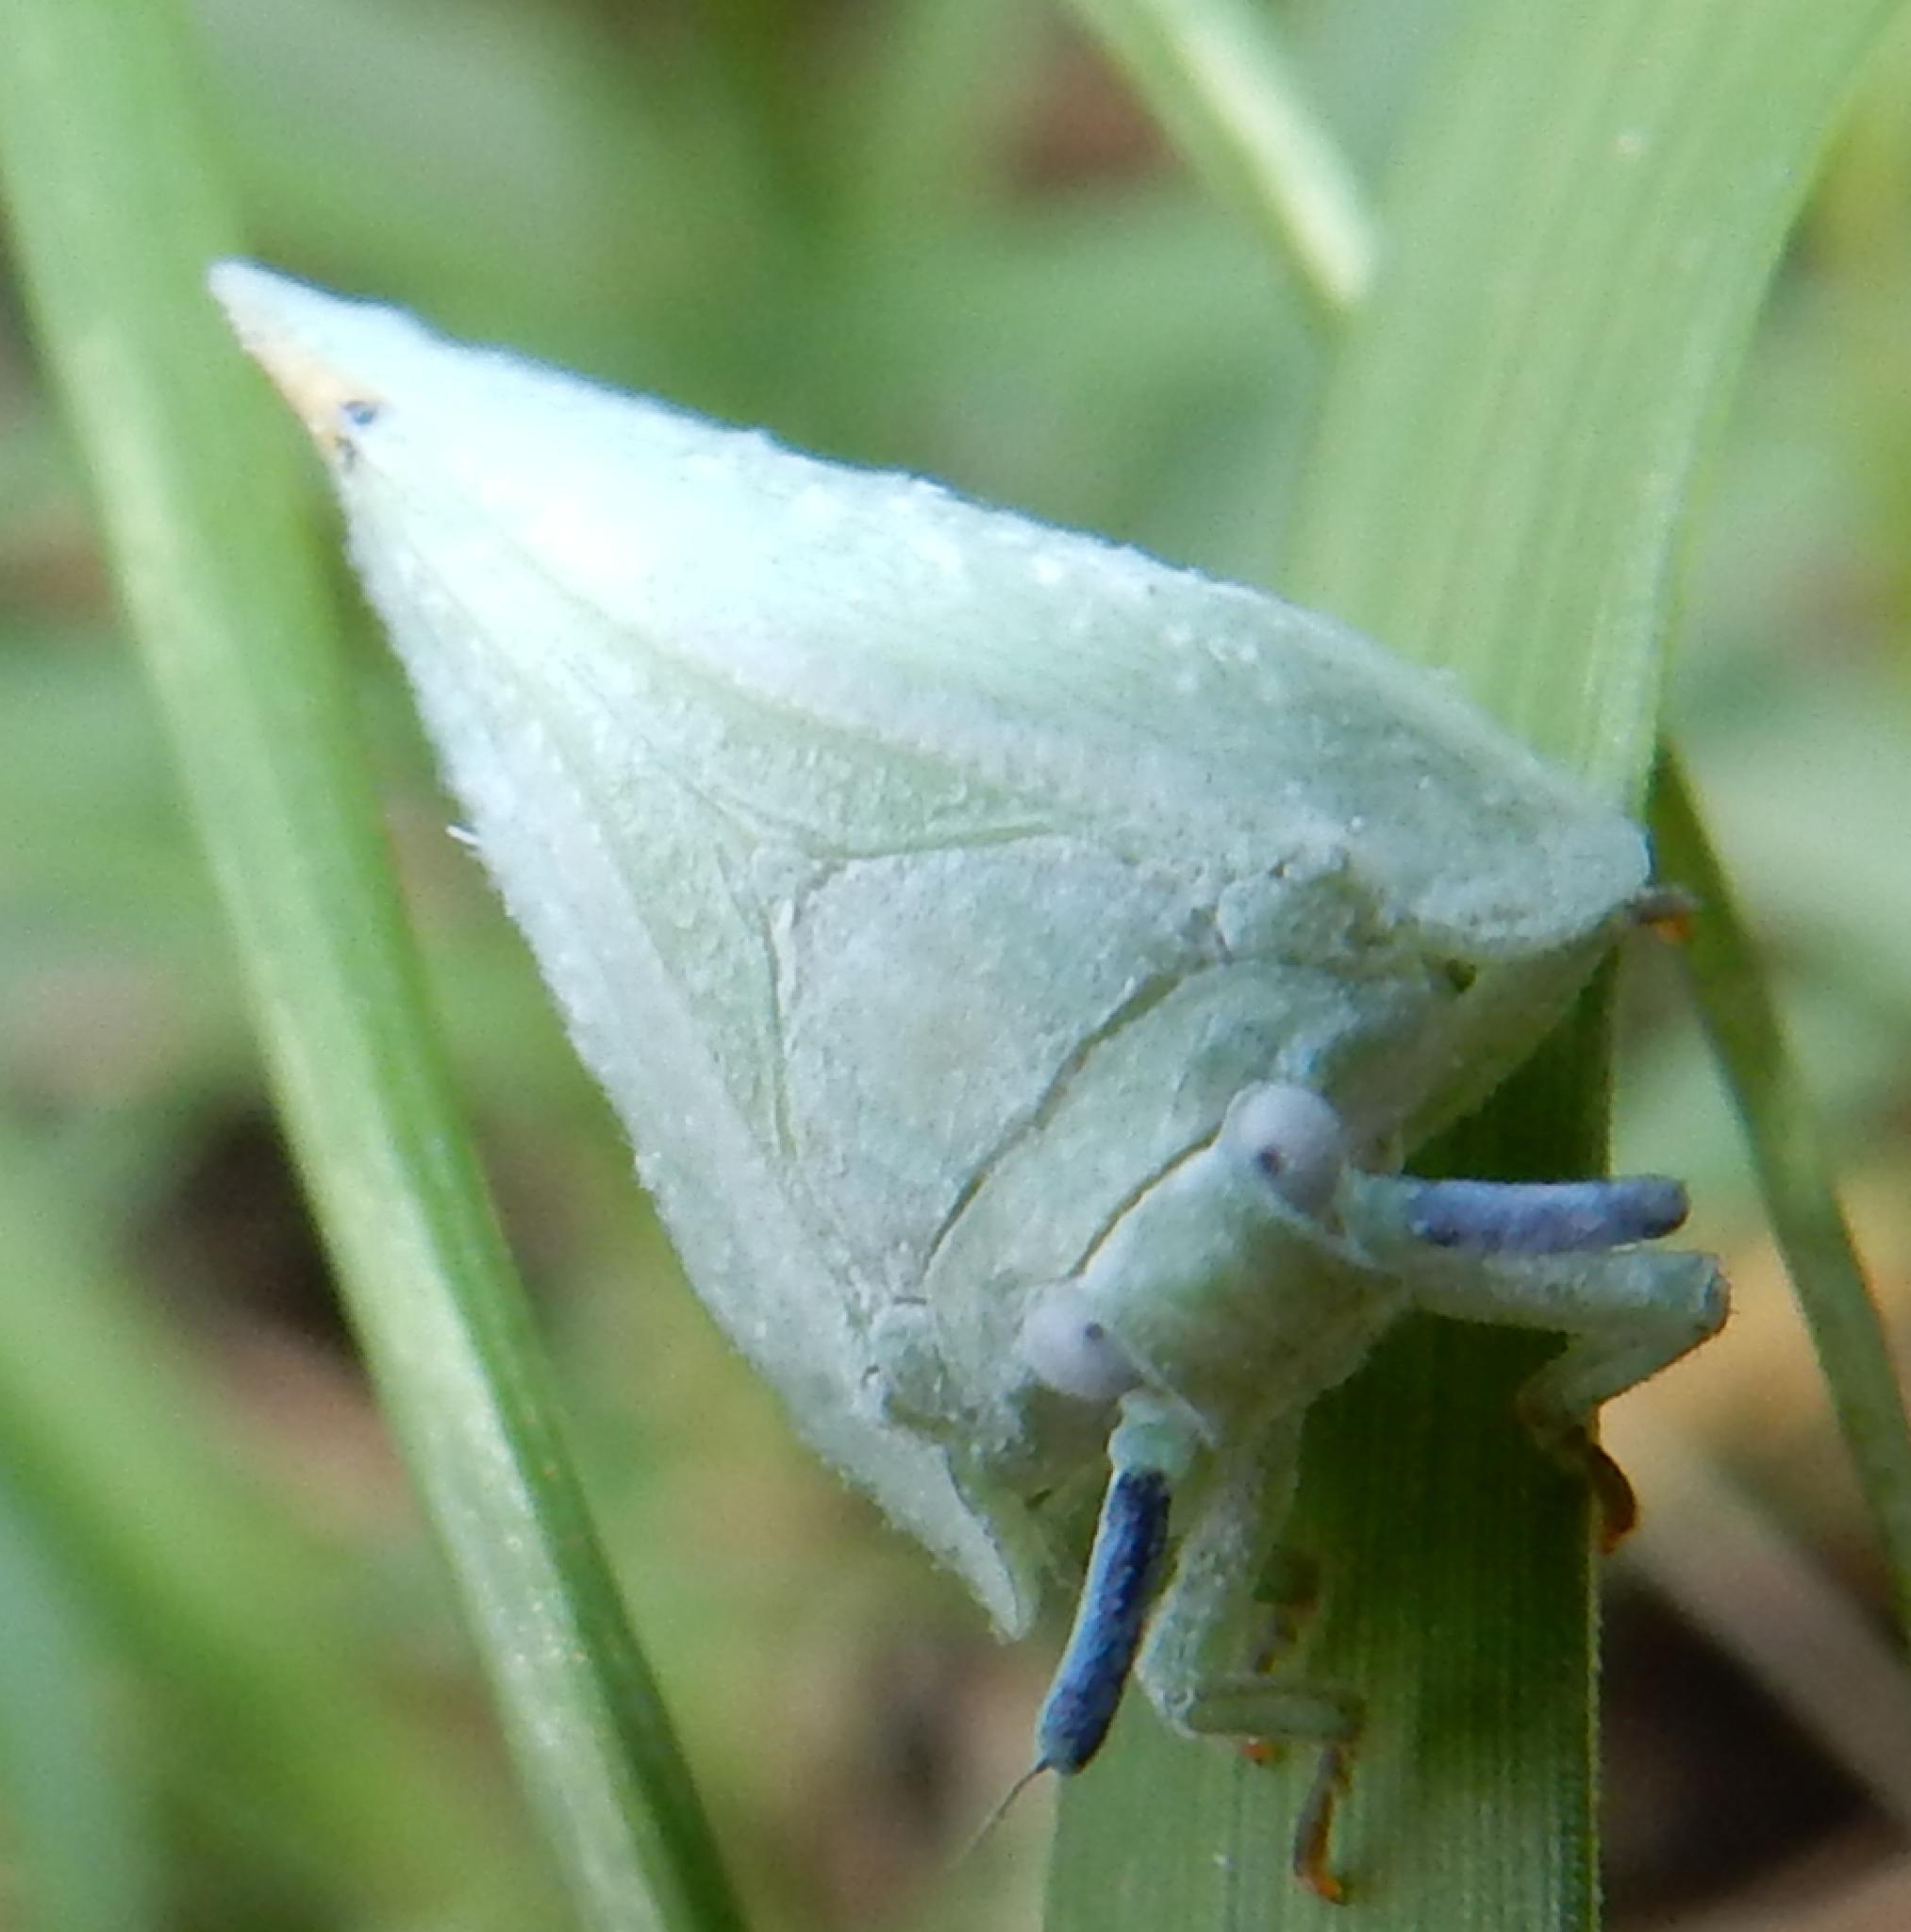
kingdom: Animalia
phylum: Arthropoda
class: Insecta
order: Hemiptera
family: Flatidae
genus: Dalapax
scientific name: Dalapax postica
